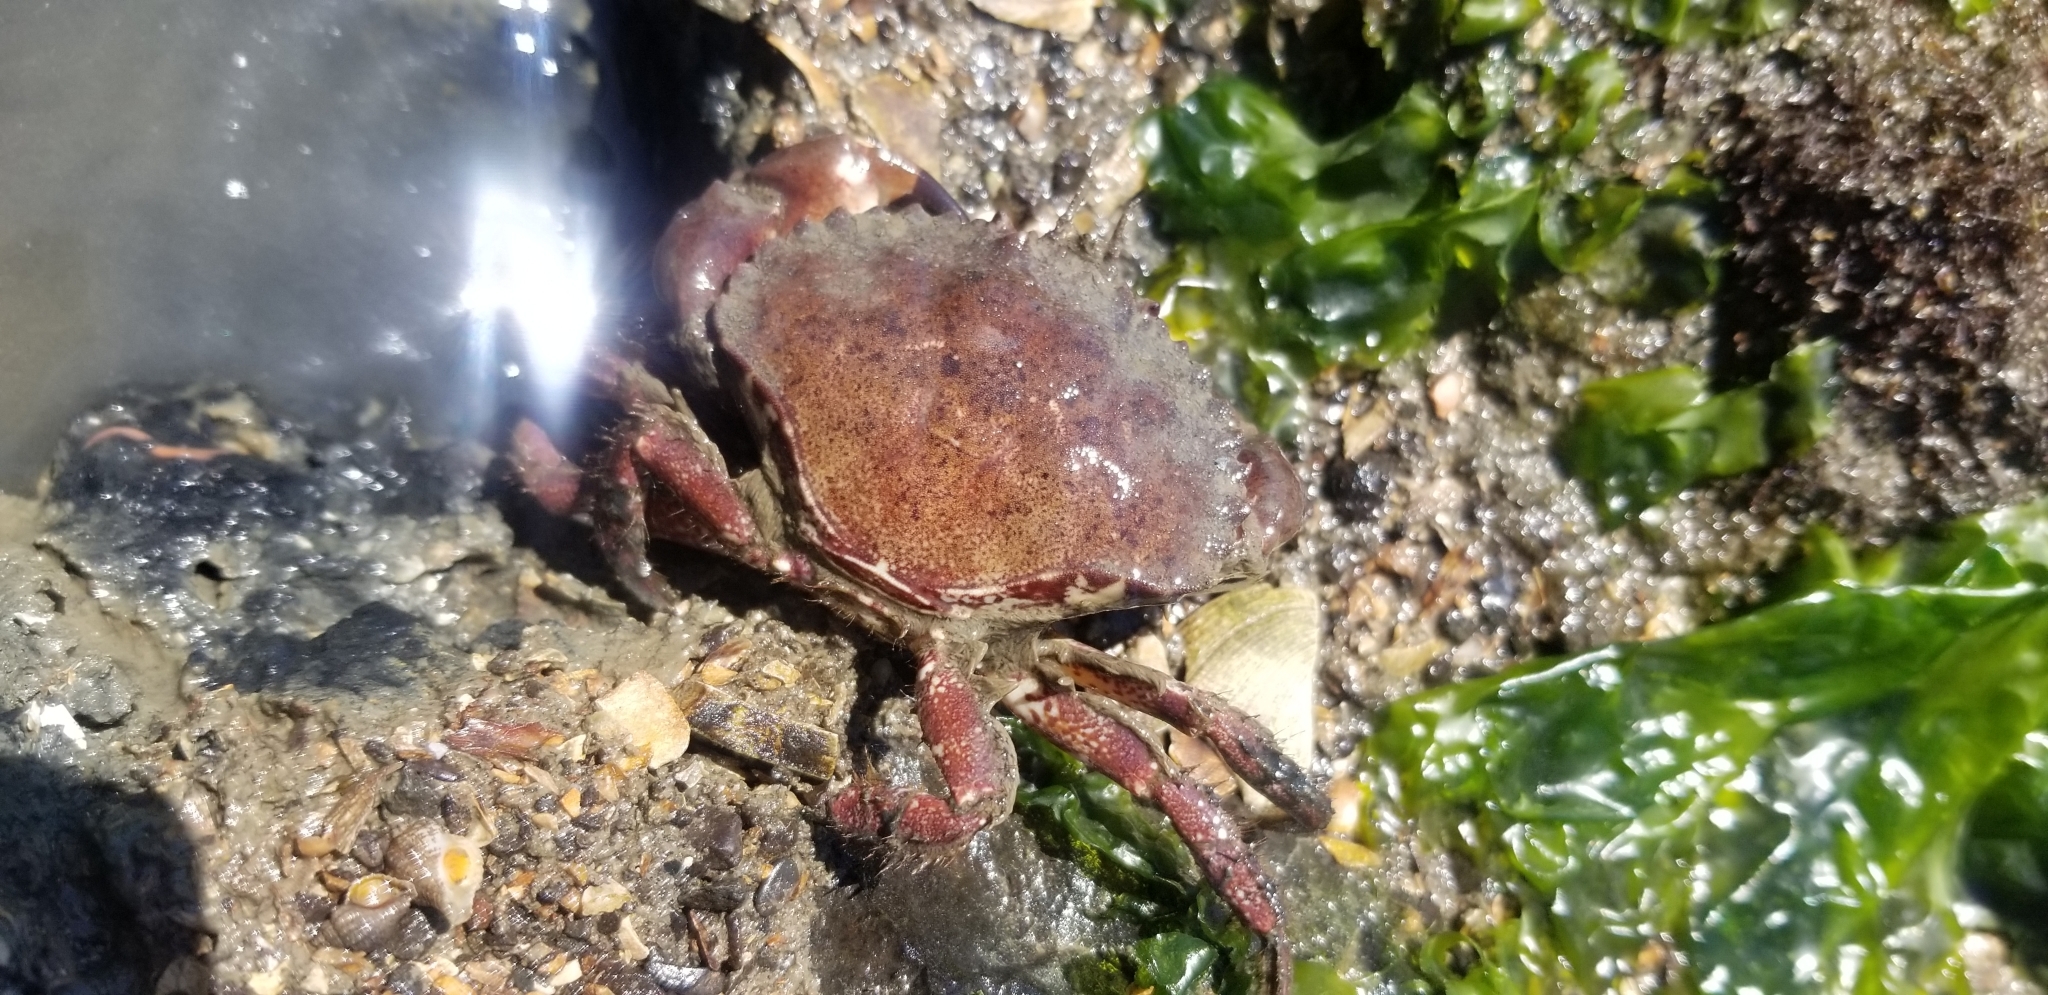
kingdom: Animalia
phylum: Arthropoda
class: Malacostraca
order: Decapoda
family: Cancridae
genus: Romaleon
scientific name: Romaleon antennarium
